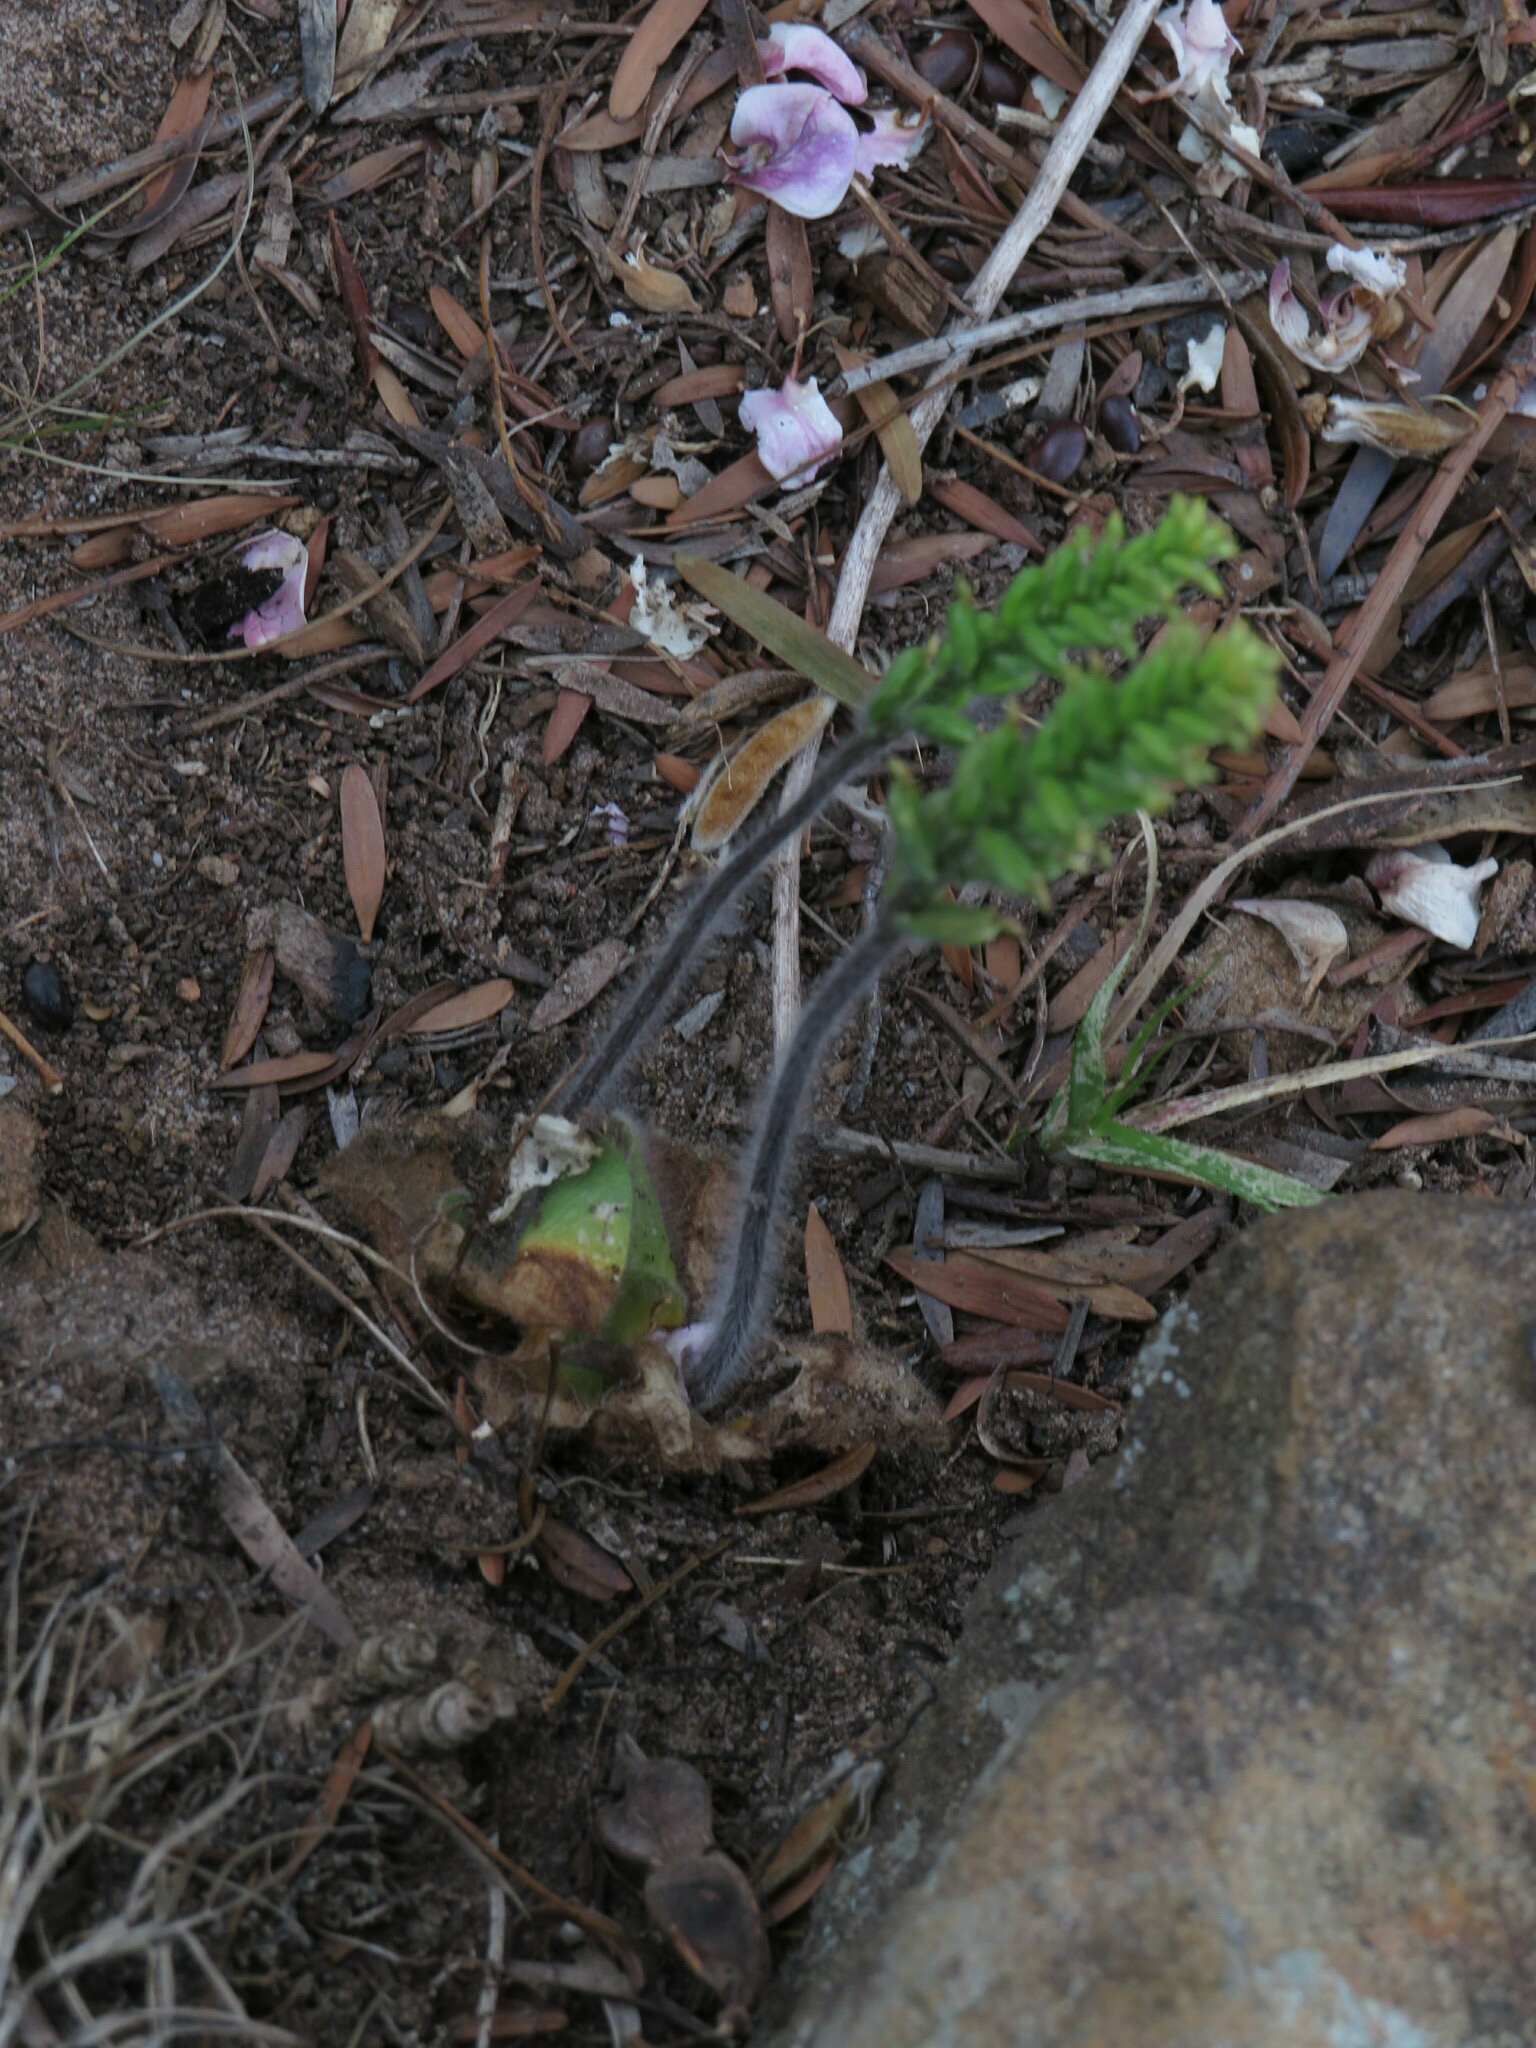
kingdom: Plantae
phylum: Tracheophyta
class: Liliopsida
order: Asparagales
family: Orchidaceae
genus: Holothrix
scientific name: Holothrix condensata
